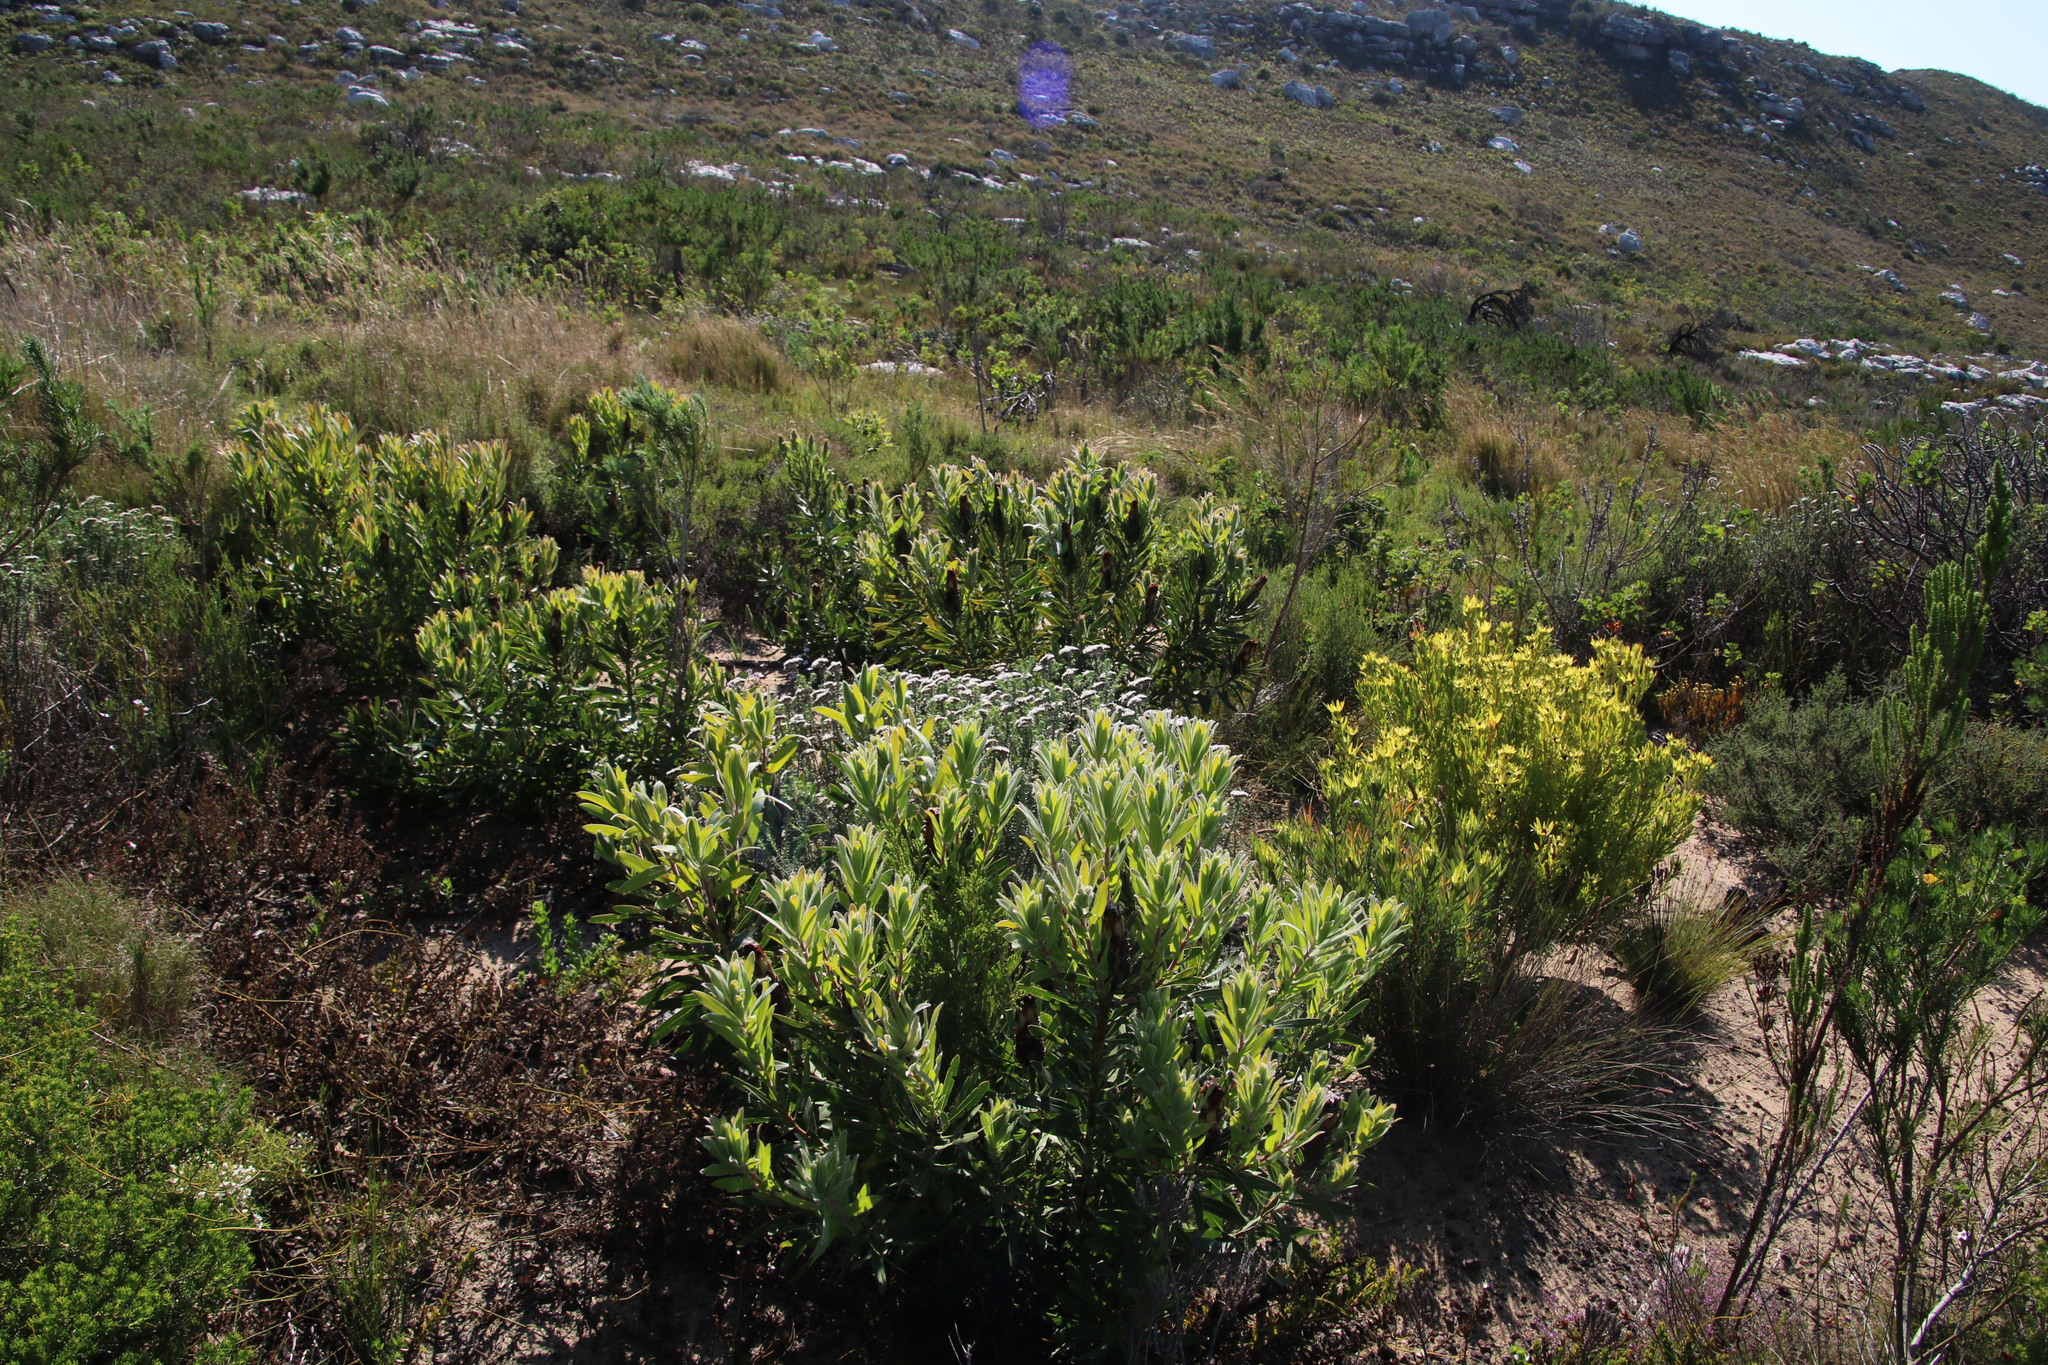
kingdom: Plantae
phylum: Tracheophyta
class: Magnoliopsida
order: Proteales
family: Proteaceae
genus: Protea
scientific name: Protea lepidocarpodendron
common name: Black-bearded protea
